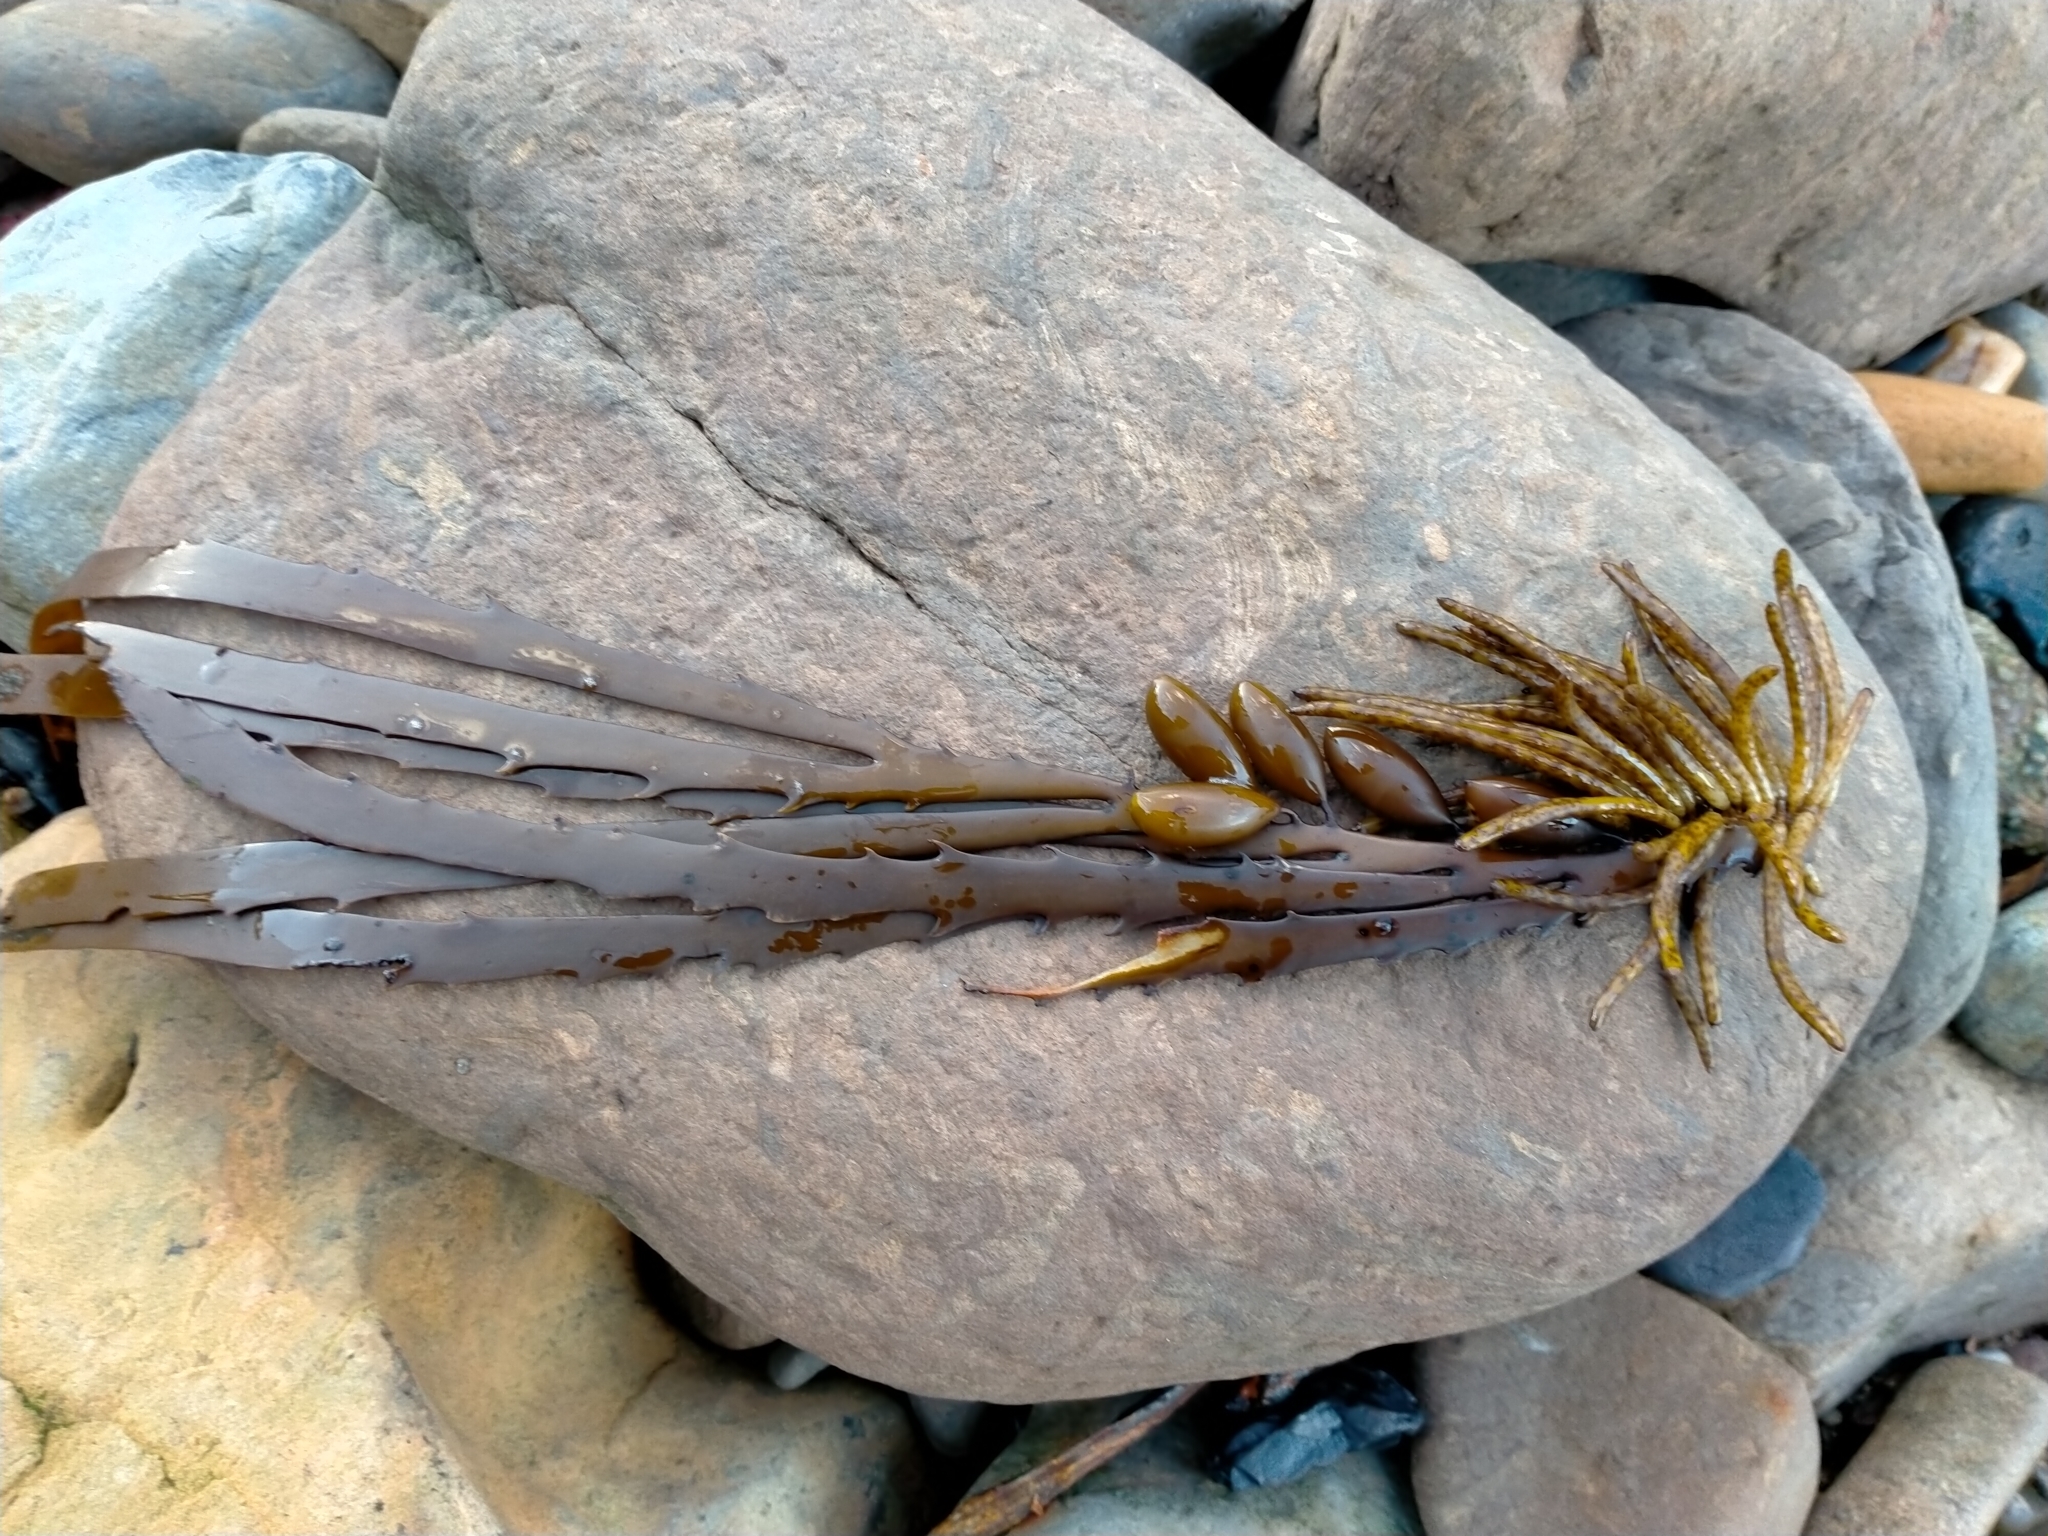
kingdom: Chromista
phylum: Ochrophyta
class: Phaeophyceae
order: Fucales
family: Seirococcaceae
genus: Marginariella
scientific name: Marginariella boryana
